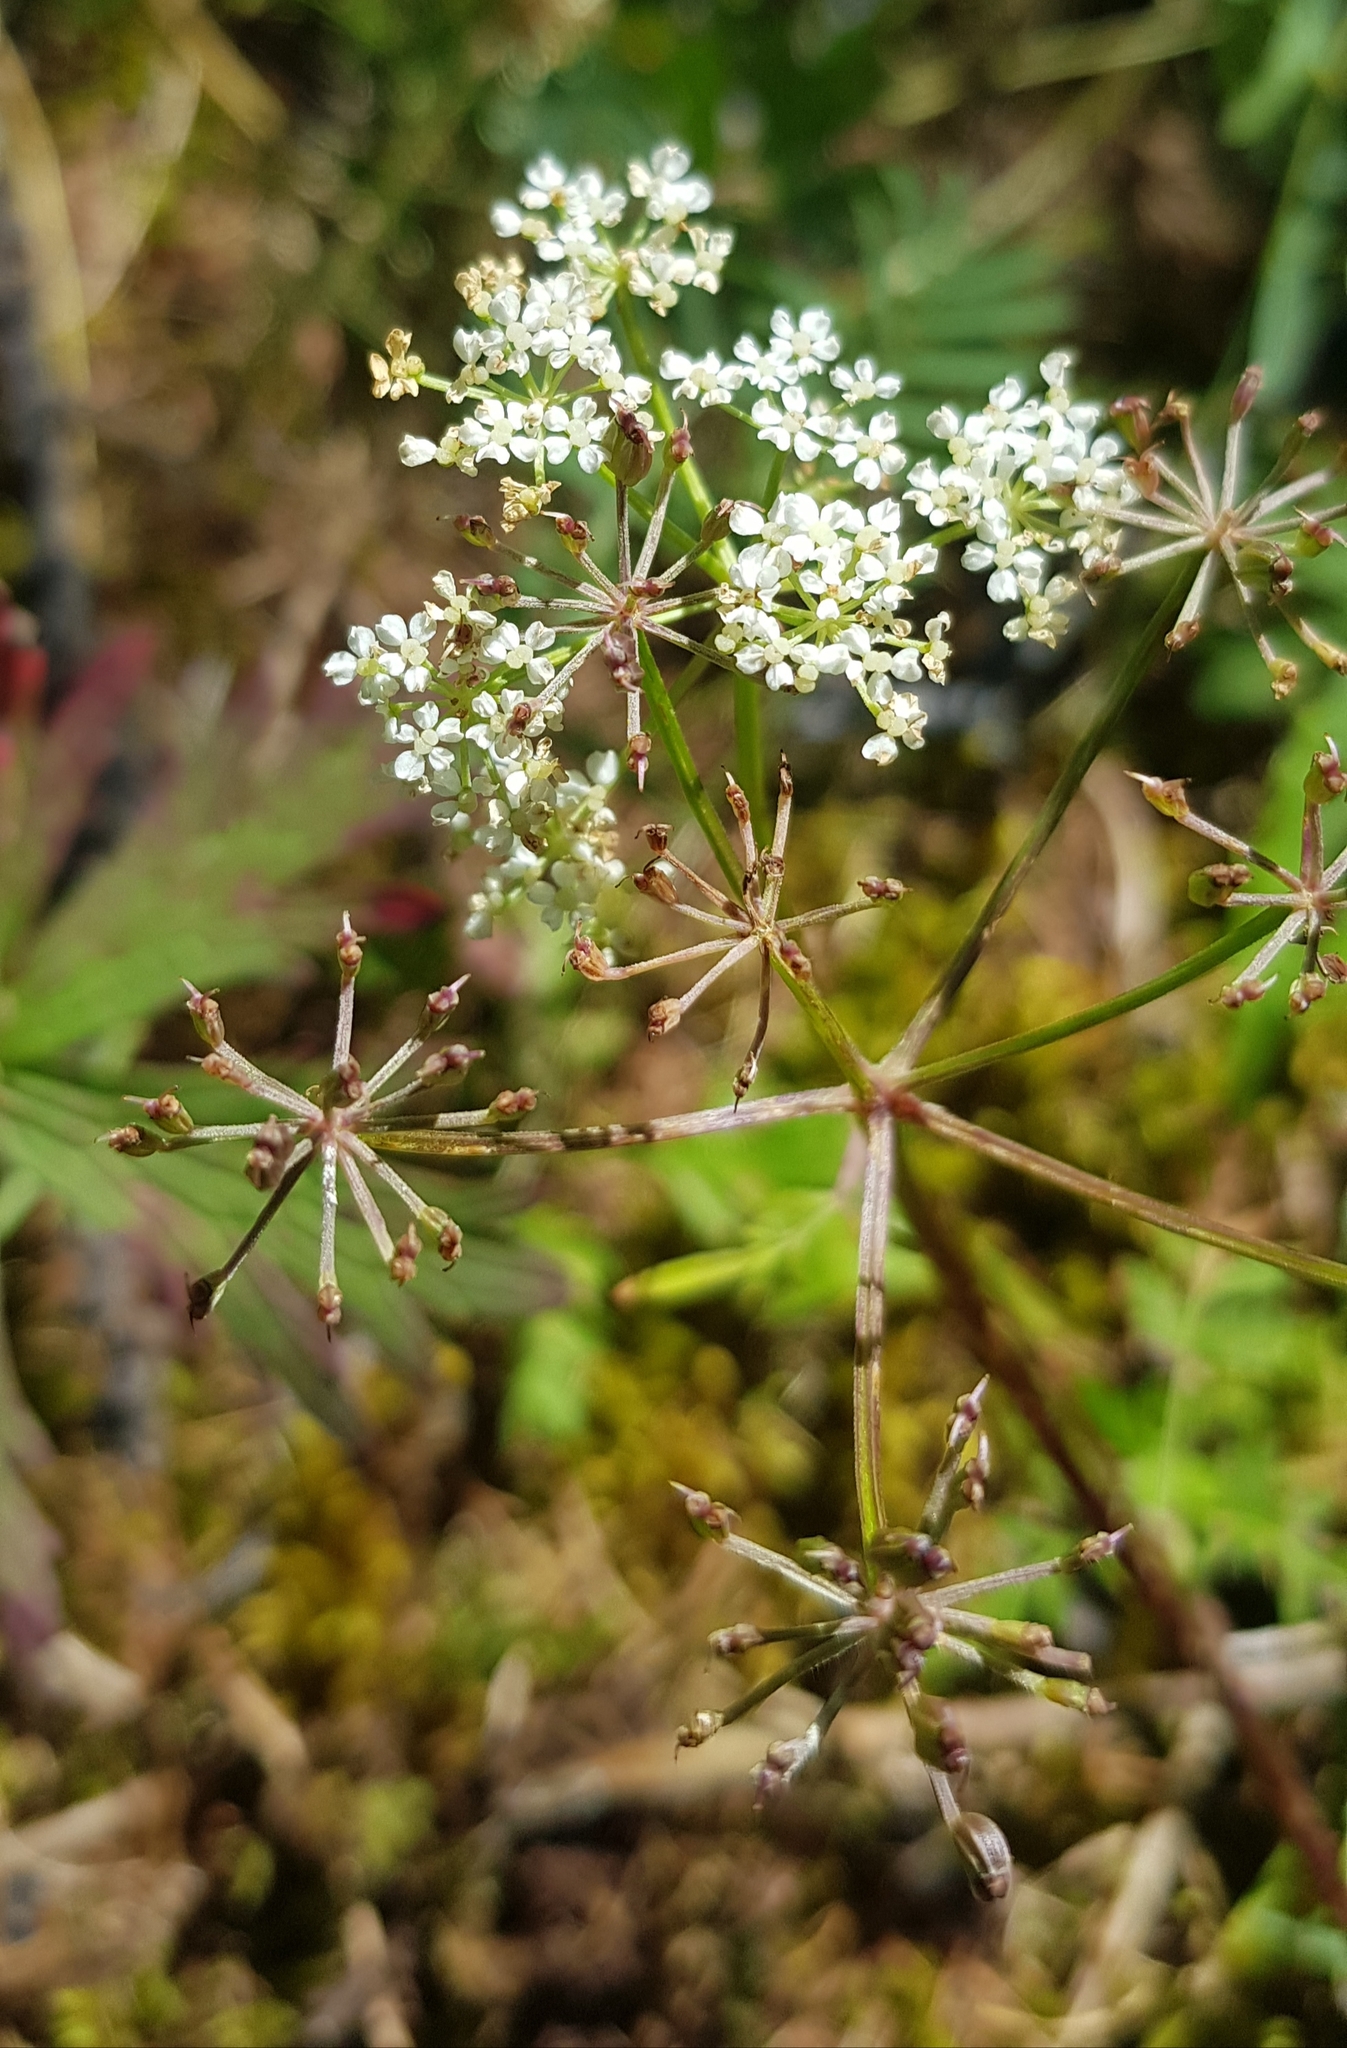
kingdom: Plantae
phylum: Tracheophyta
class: Magnoliopsida
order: Apiales
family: Apiaceae
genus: Aegopodium
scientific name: Aegopodium alpestre
